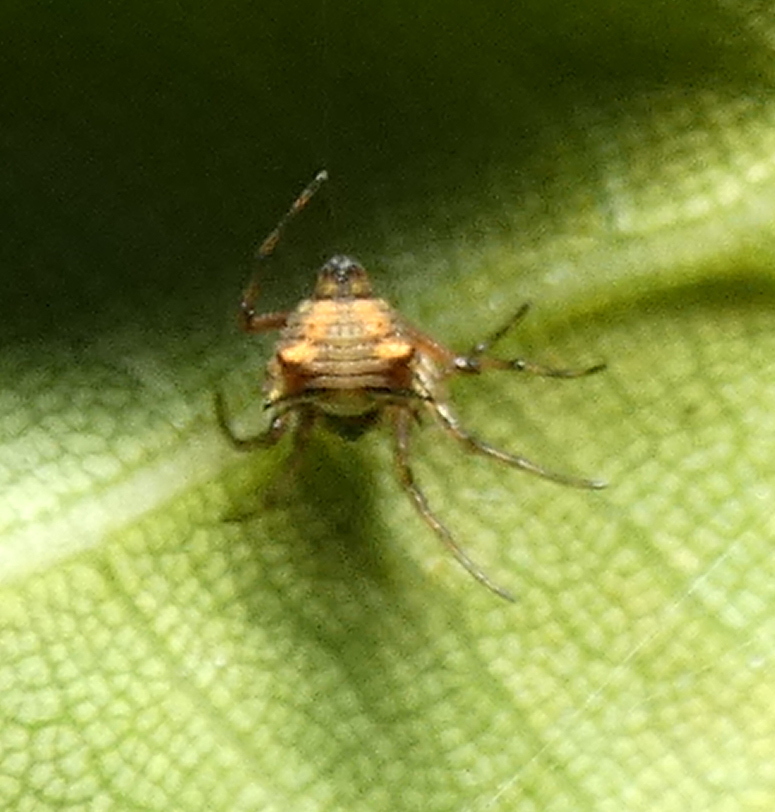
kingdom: Animalia
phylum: Arthropoda
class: Arachnida
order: Araneae
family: Araneidae
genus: Micrathena
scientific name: Micrathena picta
